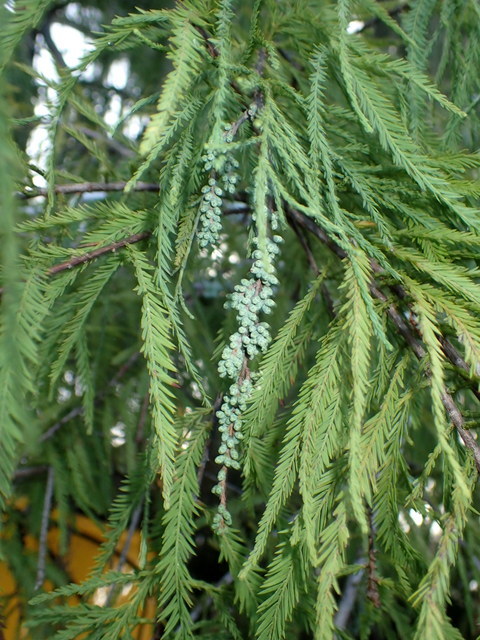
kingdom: Plantae
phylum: Tracheophyta
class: Pinopsida
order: Pinales
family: Cupressaceae
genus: Taxodium
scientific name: Taxodium distichum
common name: Bald cypress
